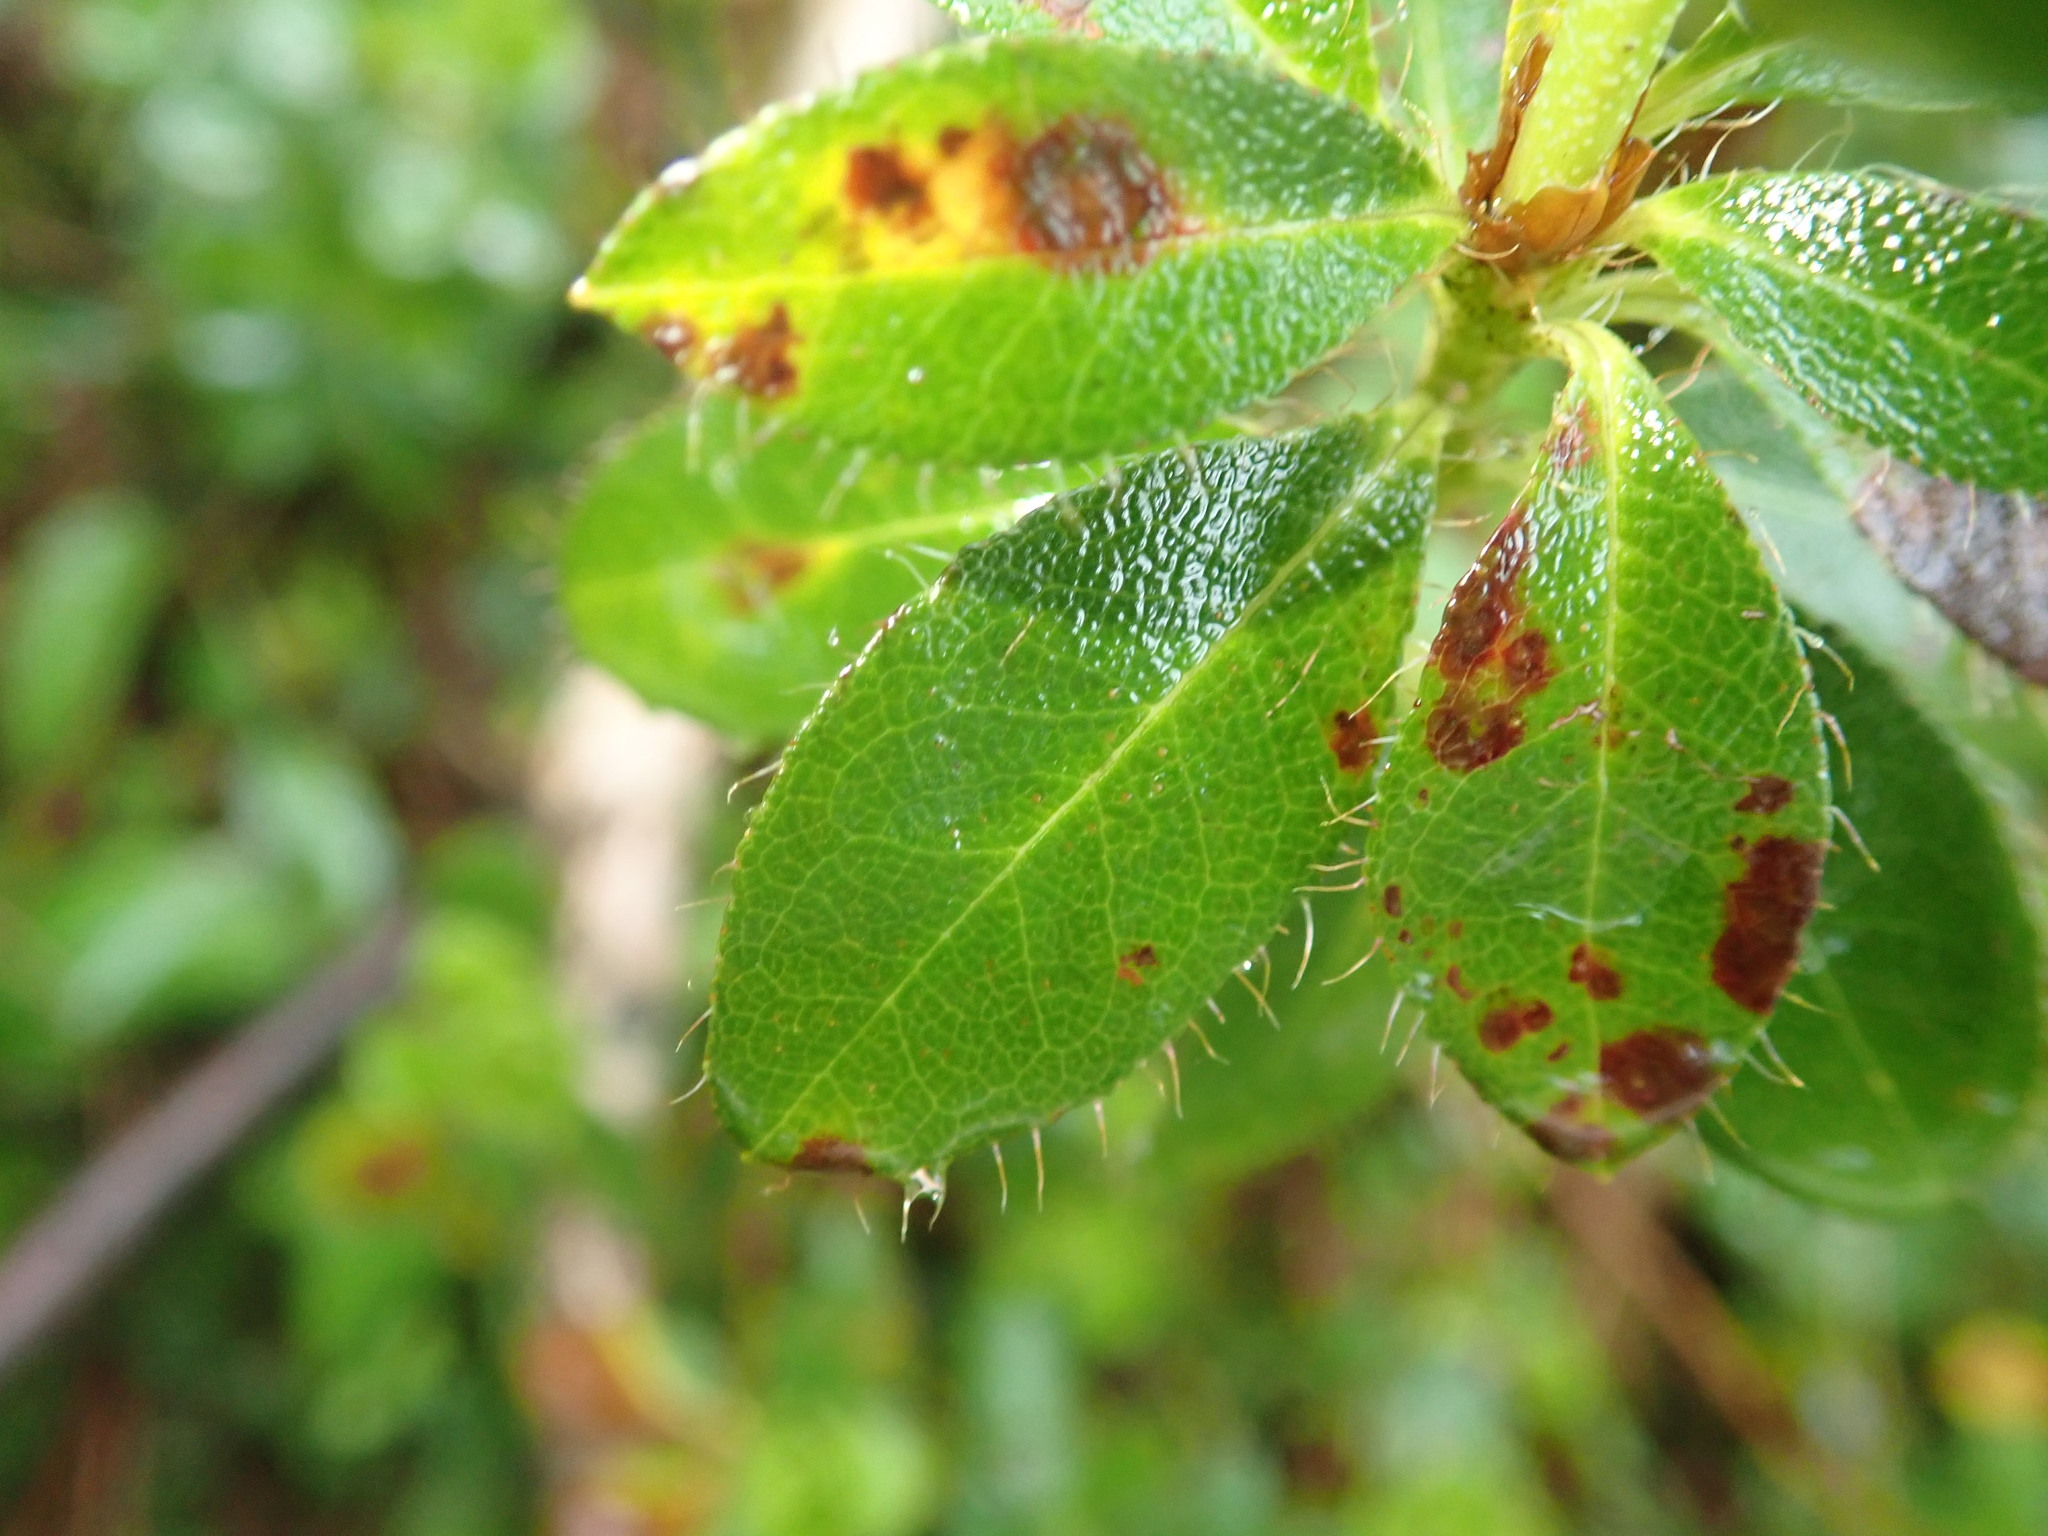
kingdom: Plantae
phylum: Tracheophyta
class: Magnoliopsida
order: Ericales
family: Ericaceae
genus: Rhododendron
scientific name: Rhododendron hirsutum
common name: Hairy alpenrose
